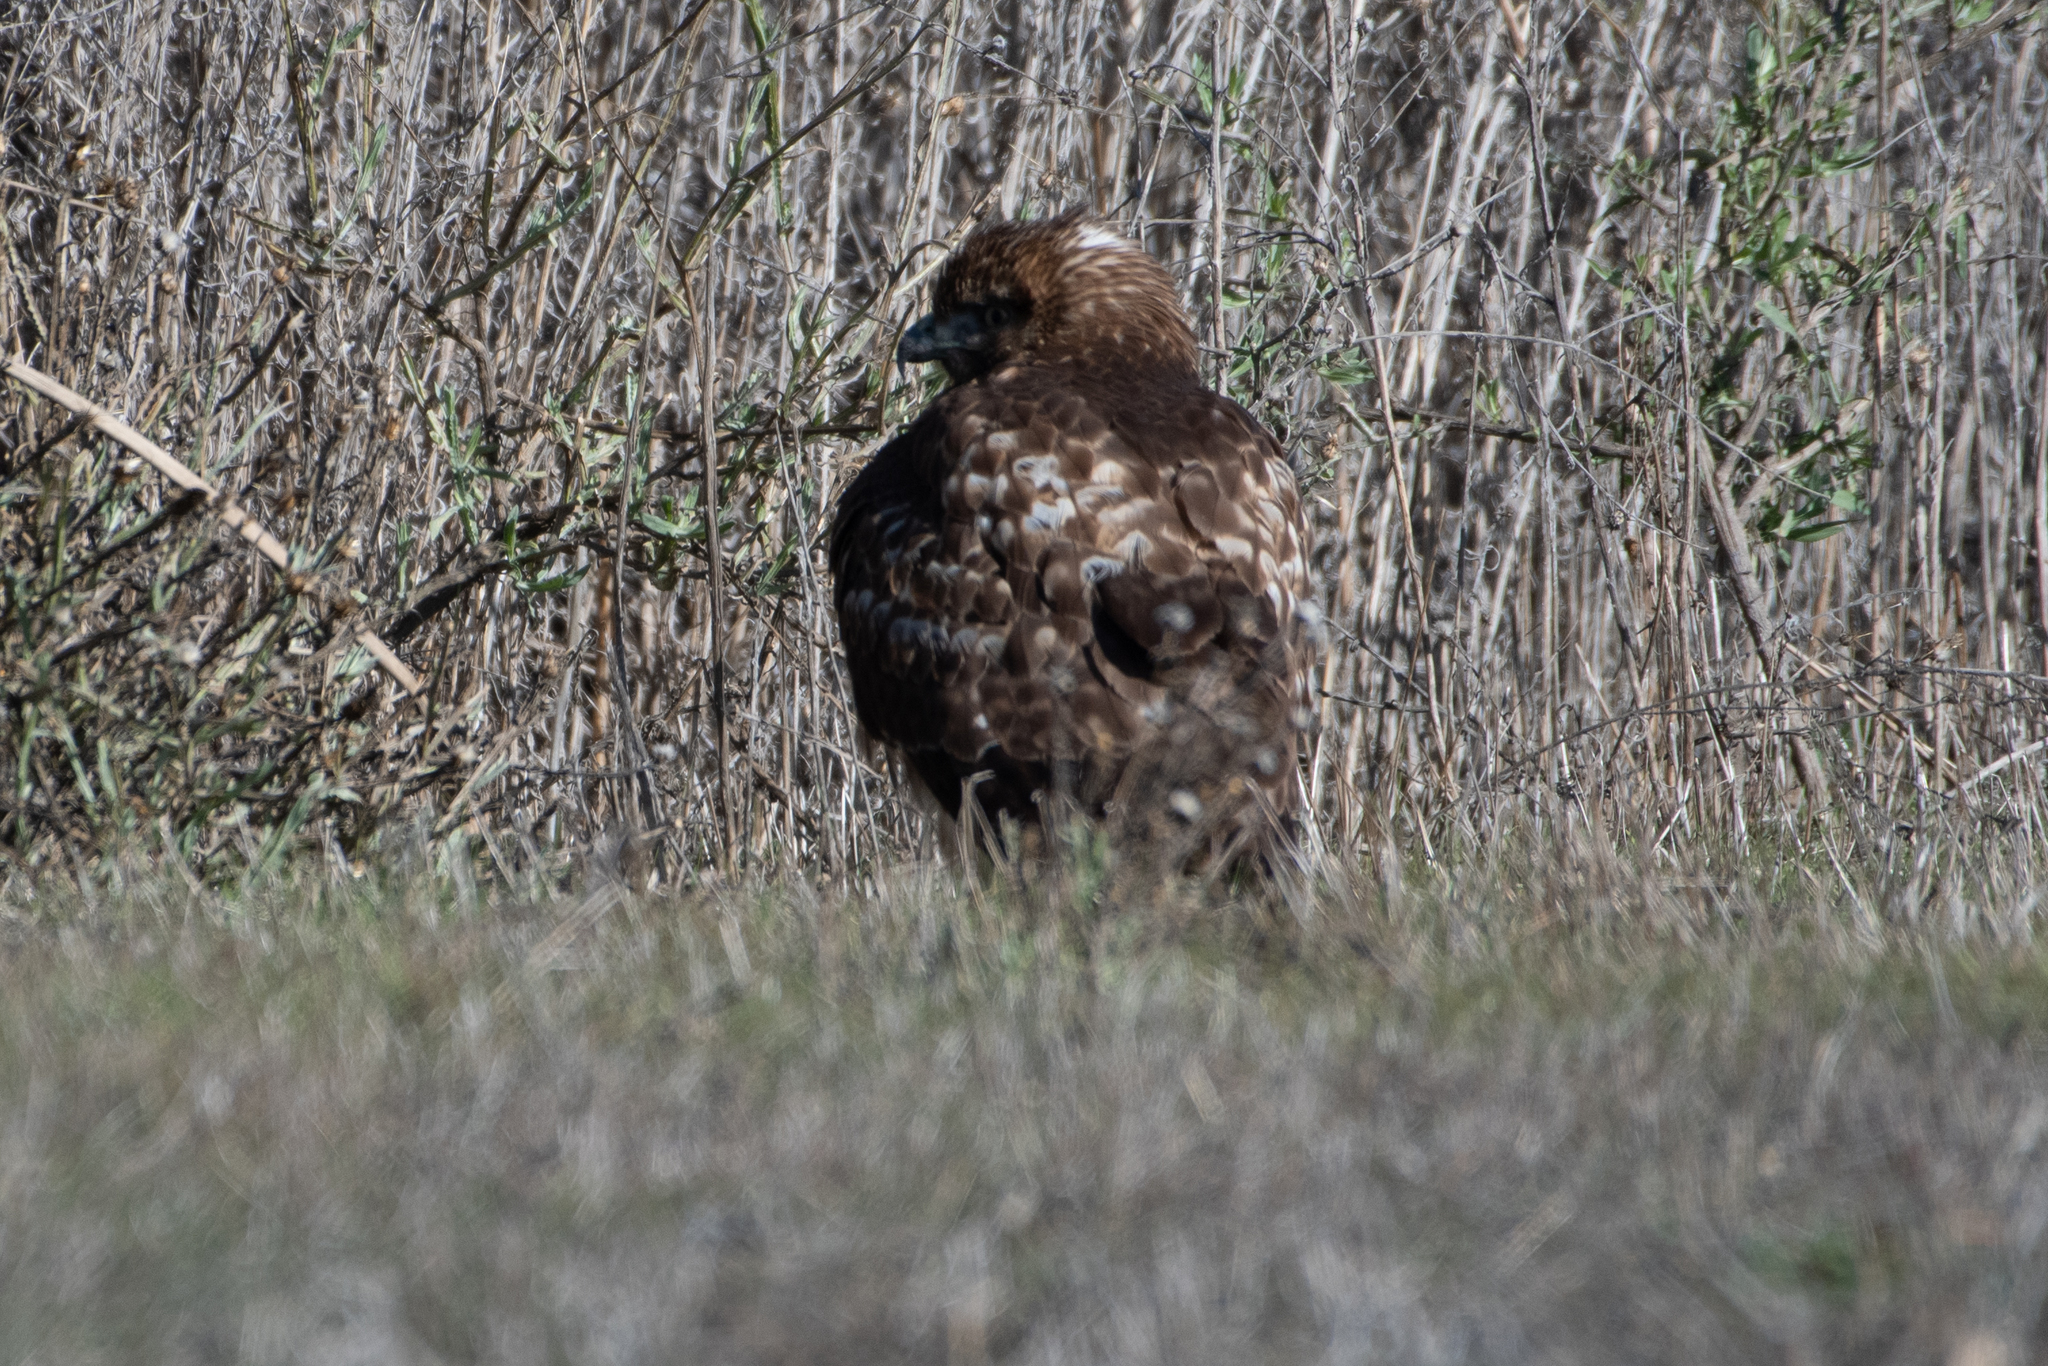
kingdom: Animalia
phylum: Chordata
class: Aves
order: Accipitriformes
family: Accipitridae
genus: Buteo
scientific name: Buteo jamaicensis
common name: Red-tailed hawk
